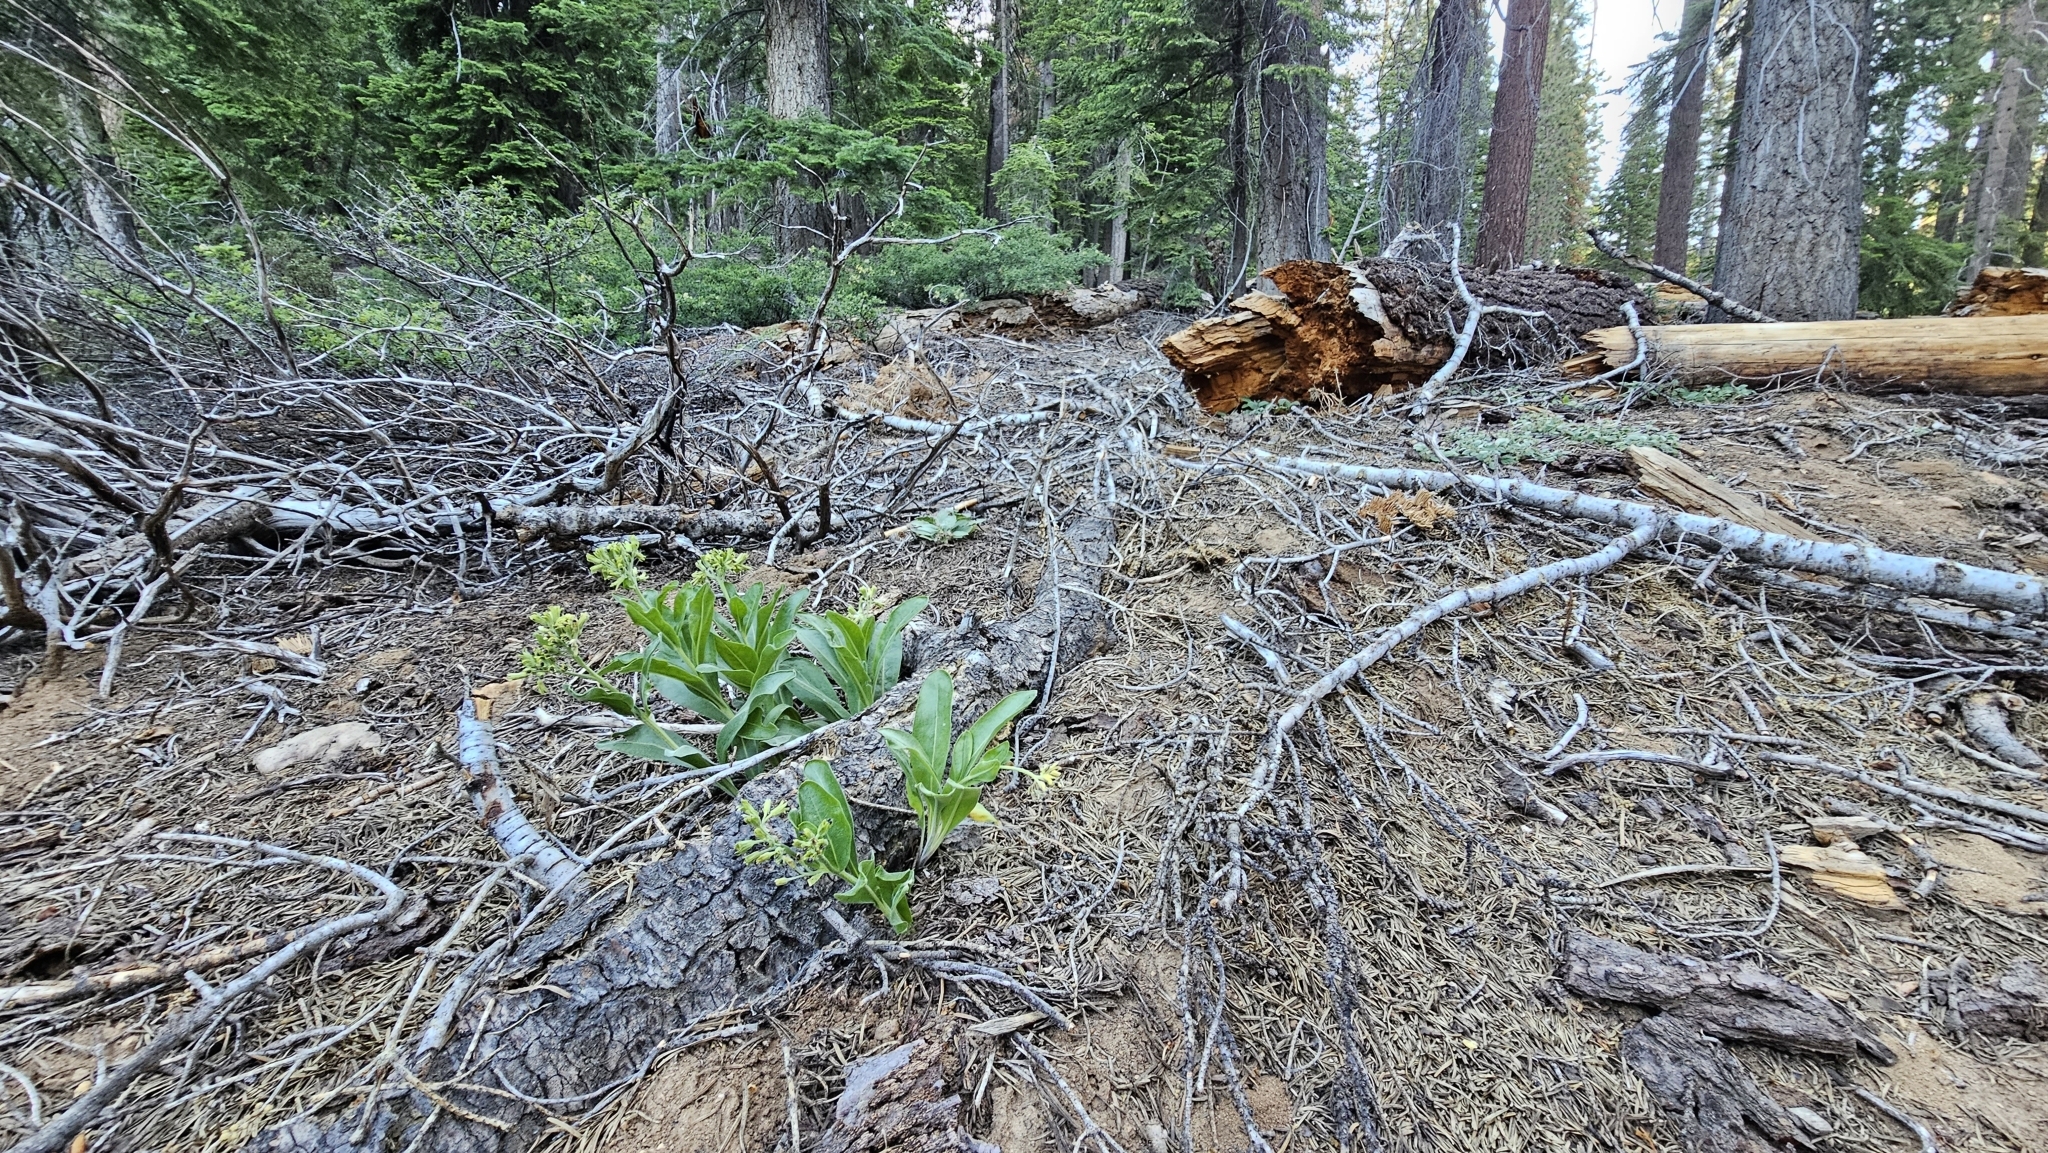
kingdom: Plantae
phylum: Tracheophyta
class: Magnoliopsida
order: Boraginales
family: Boraginaceae
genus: Andersonglossum
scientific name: Andersonglossum occidentale
